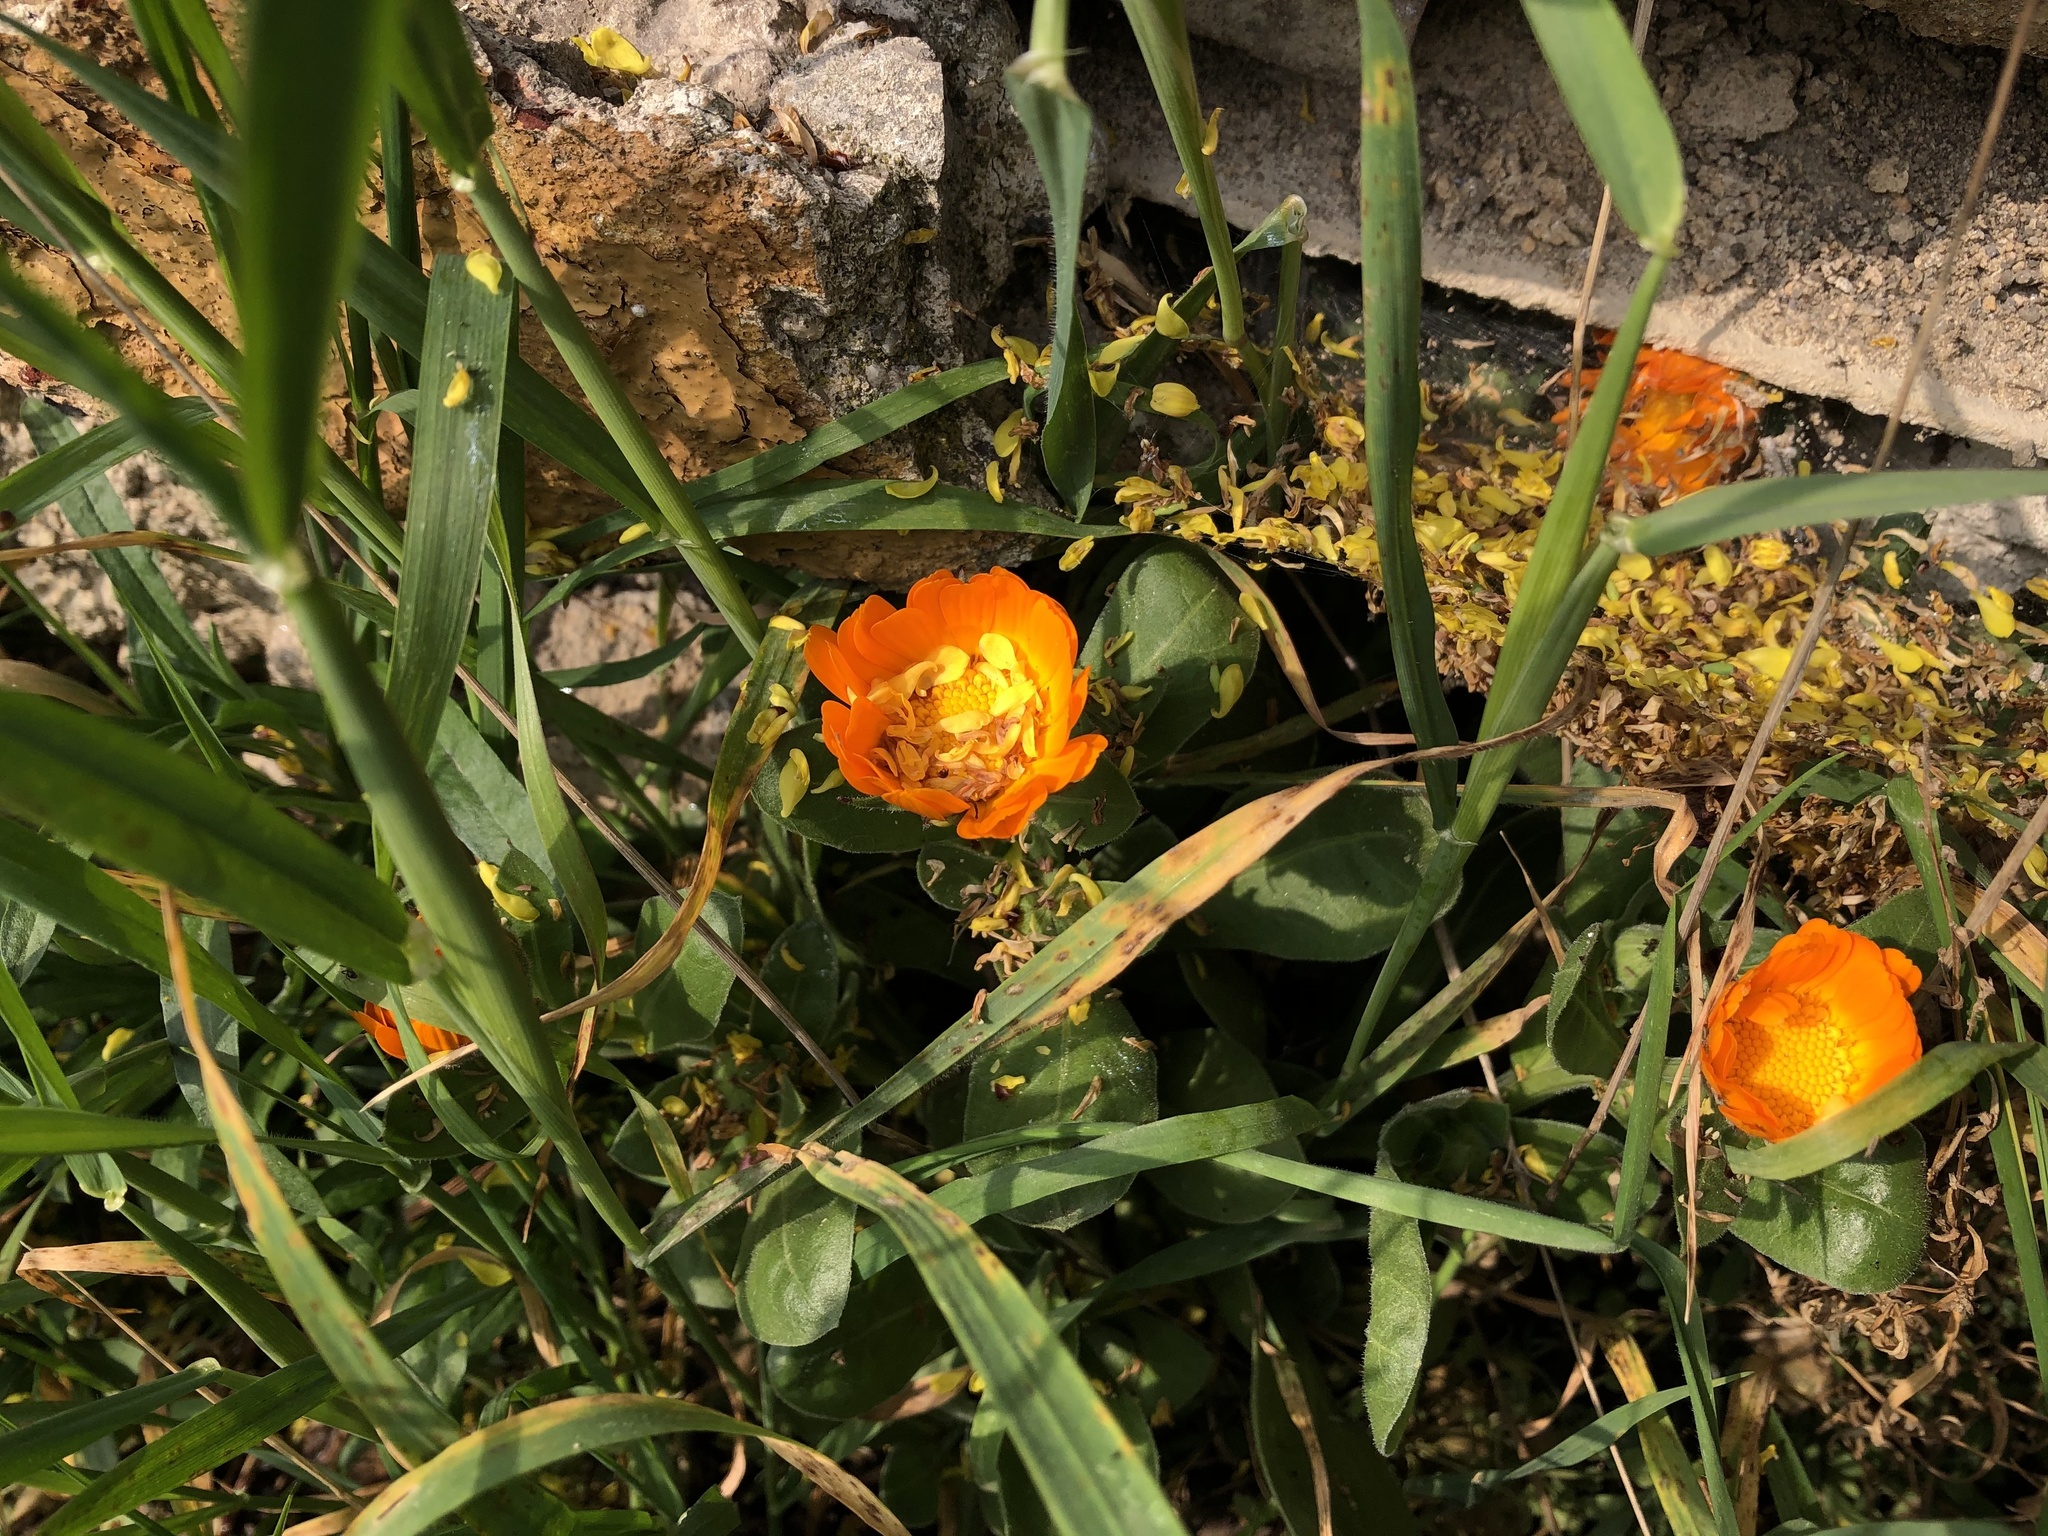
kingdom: Plantae
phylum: Tracheophyta
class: Magnoliopsida
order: Asterales
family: Asteraceae
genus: Calendula
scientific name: Calendula officinalis
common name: Pot marigold
